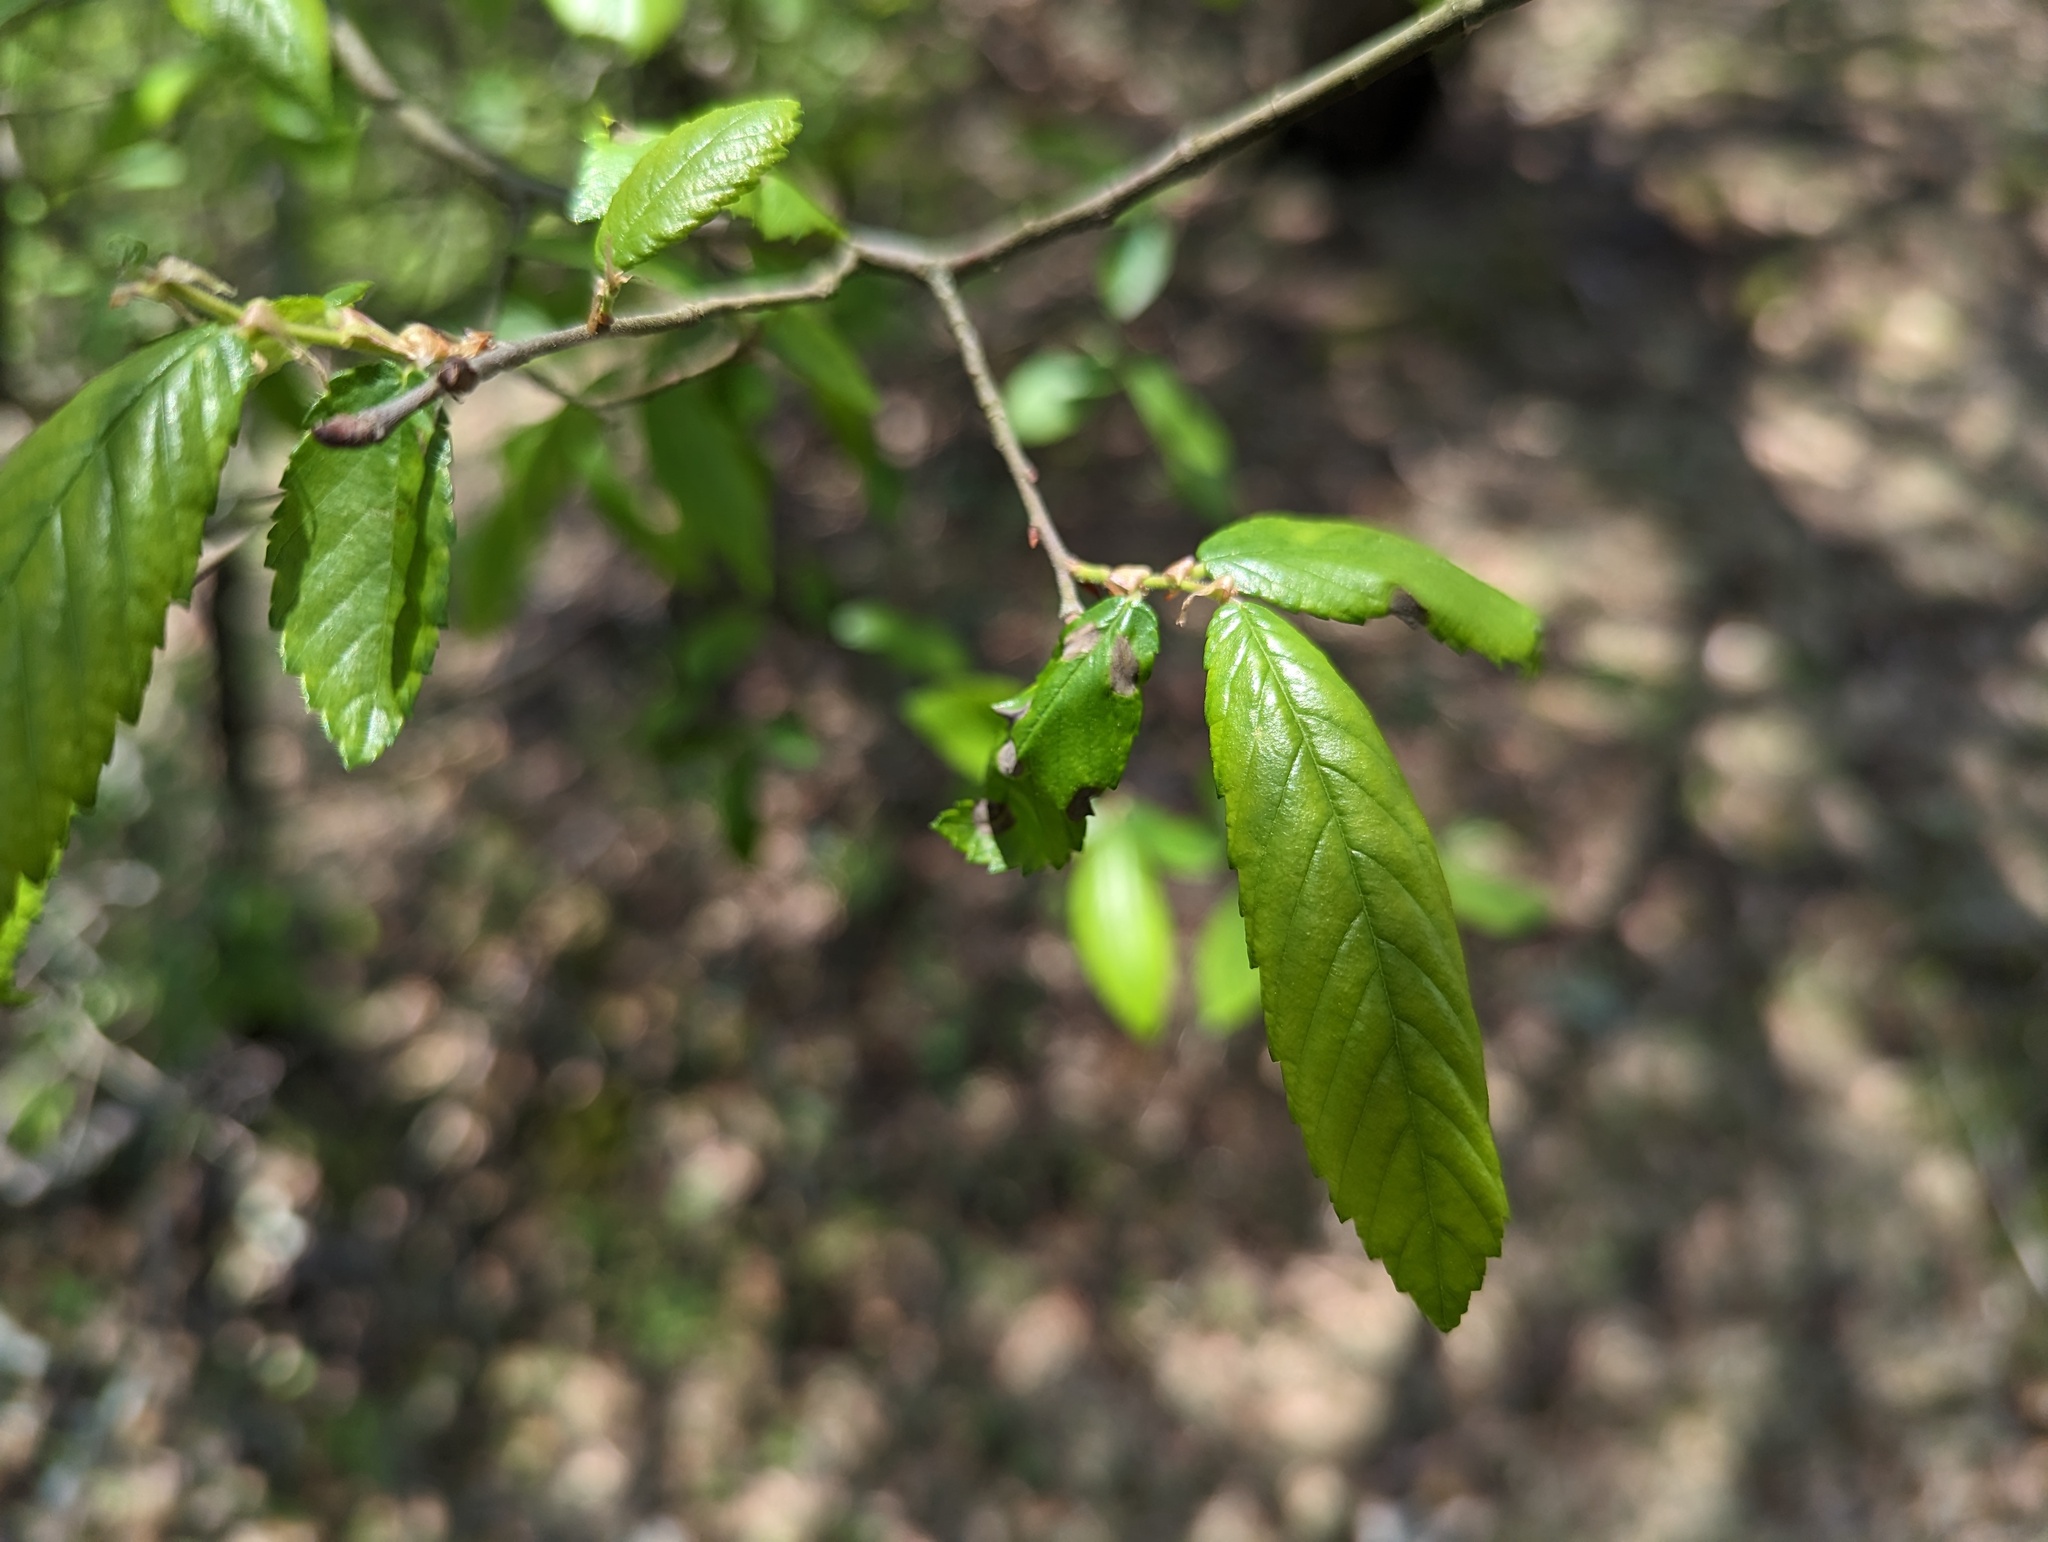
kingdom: Plantae
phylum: Tracheophyta
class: Magnoliopsida
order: Rosales
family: Ulmaceae
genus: Ulmus
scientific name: Ulmus alata
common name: Winged elm
